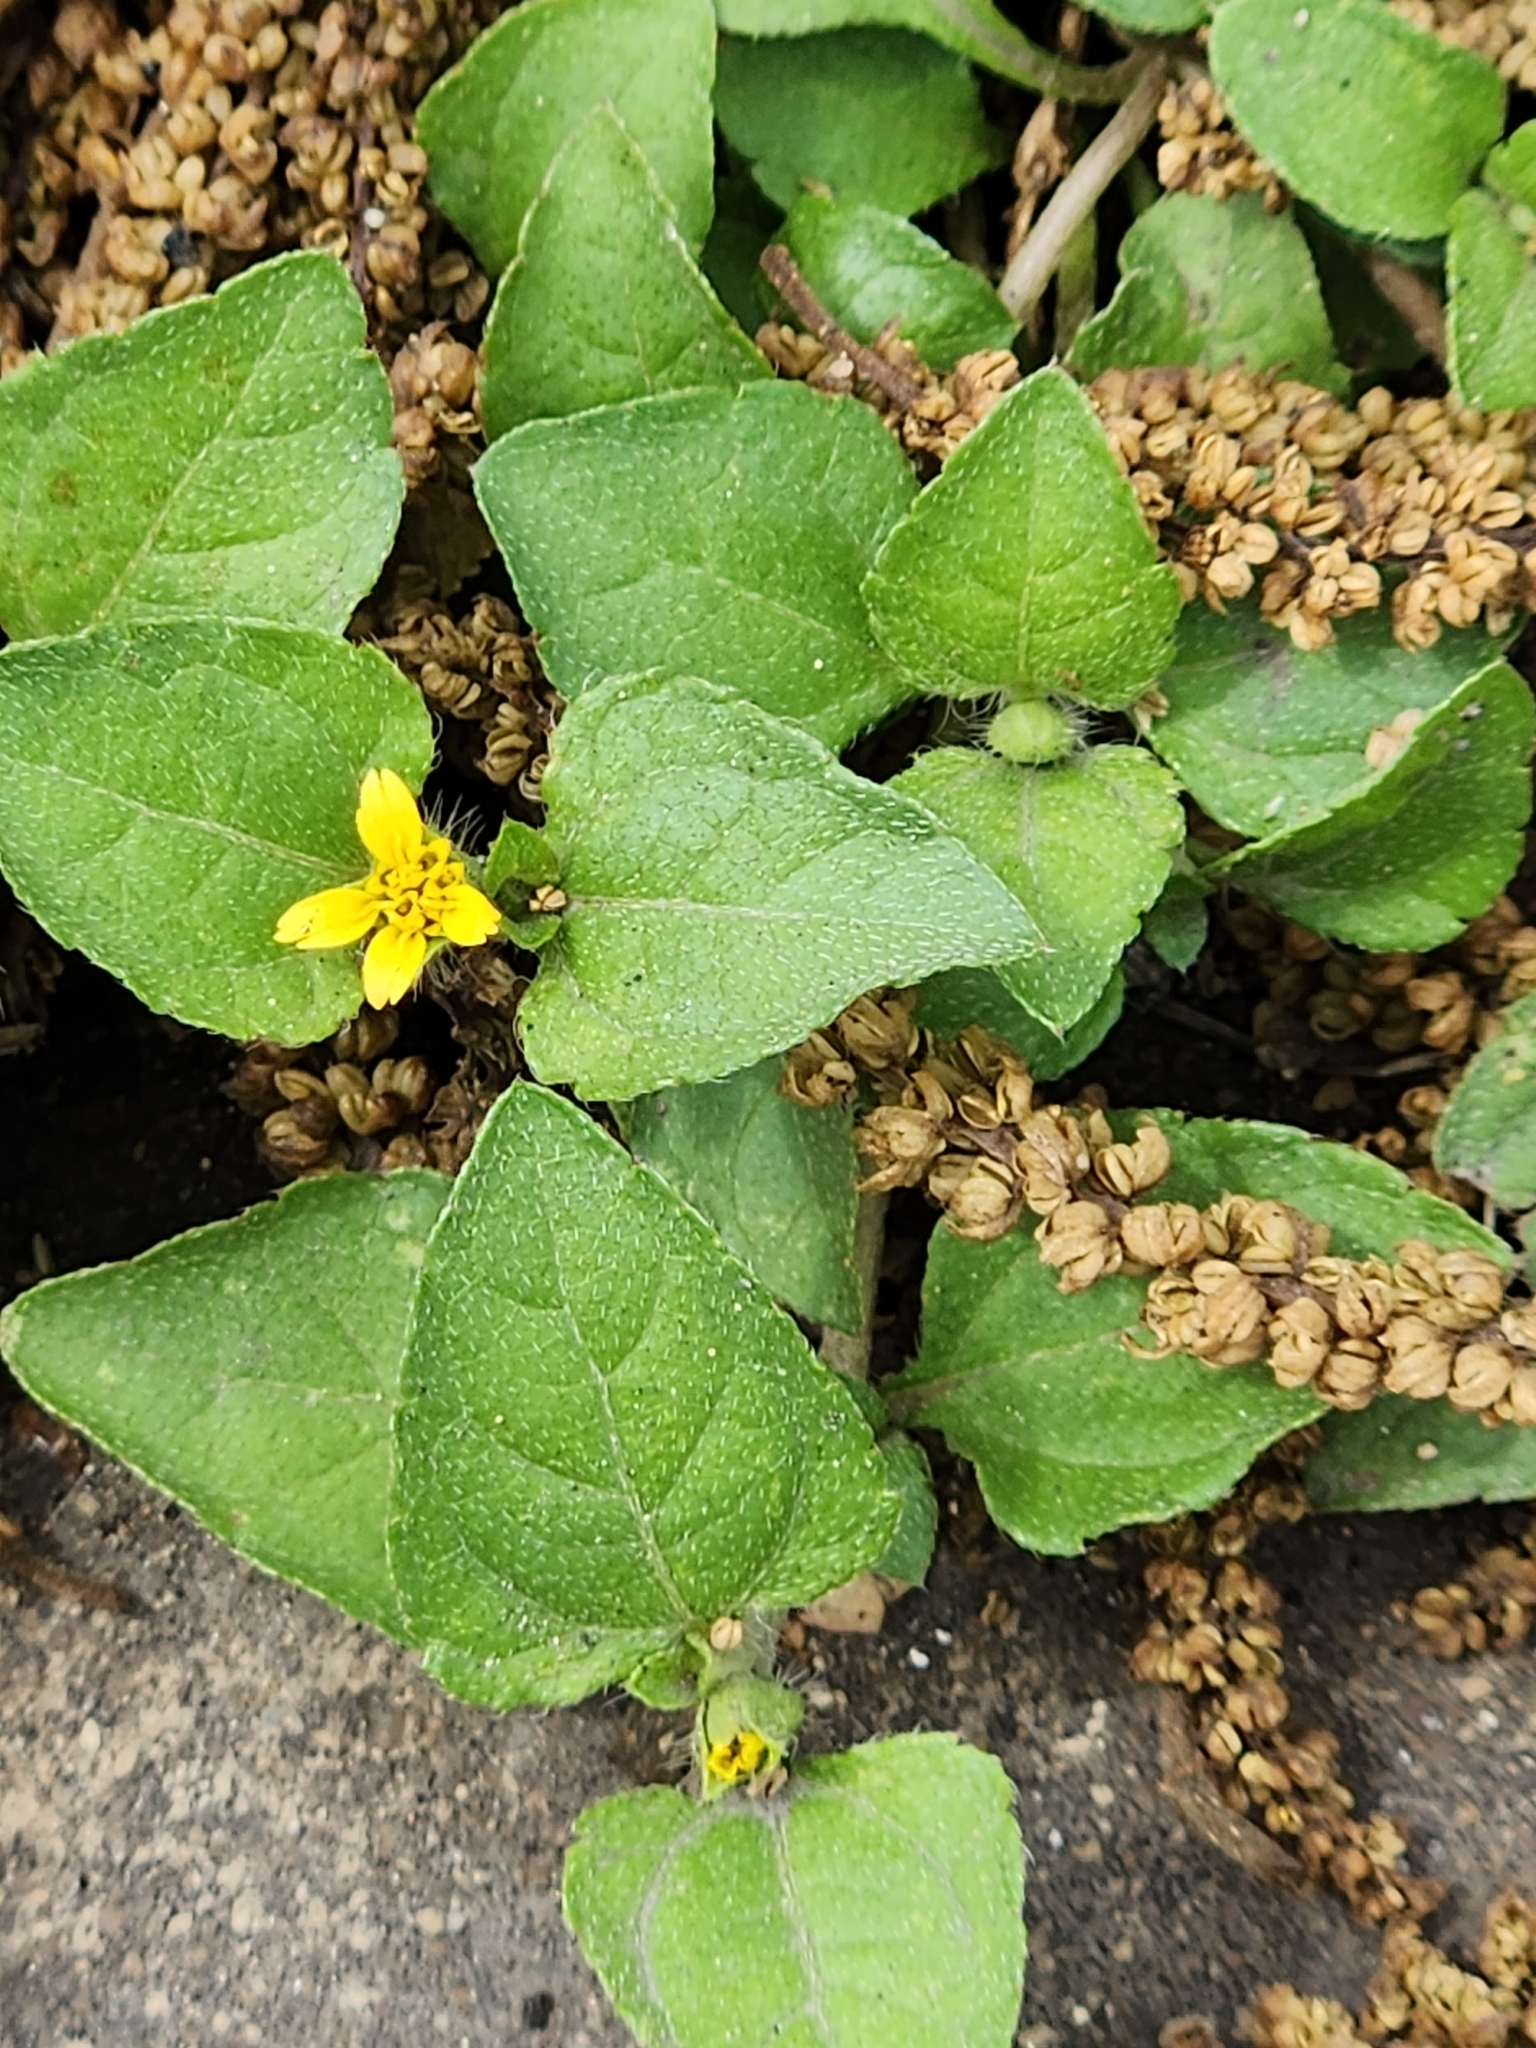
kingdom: Plantae
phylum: Tracheophyta
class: Magnoliopsida
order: Asterales
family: Asteraceae
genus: Calyptocarpus
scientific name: Calyptocarpus vialis
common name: Straggler daisy
